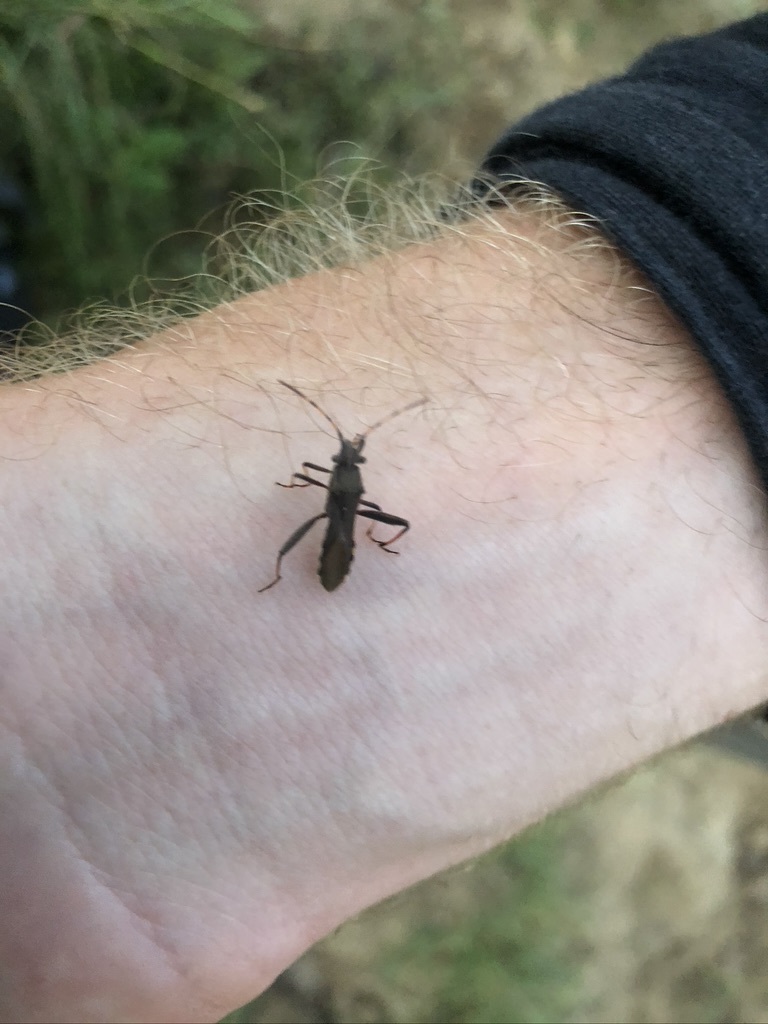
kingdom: Animalia
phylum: Arthropoda
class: Insecta
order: Hemiptera
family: Alydidae
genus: Camptopus
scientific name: Camptopus lateralis
